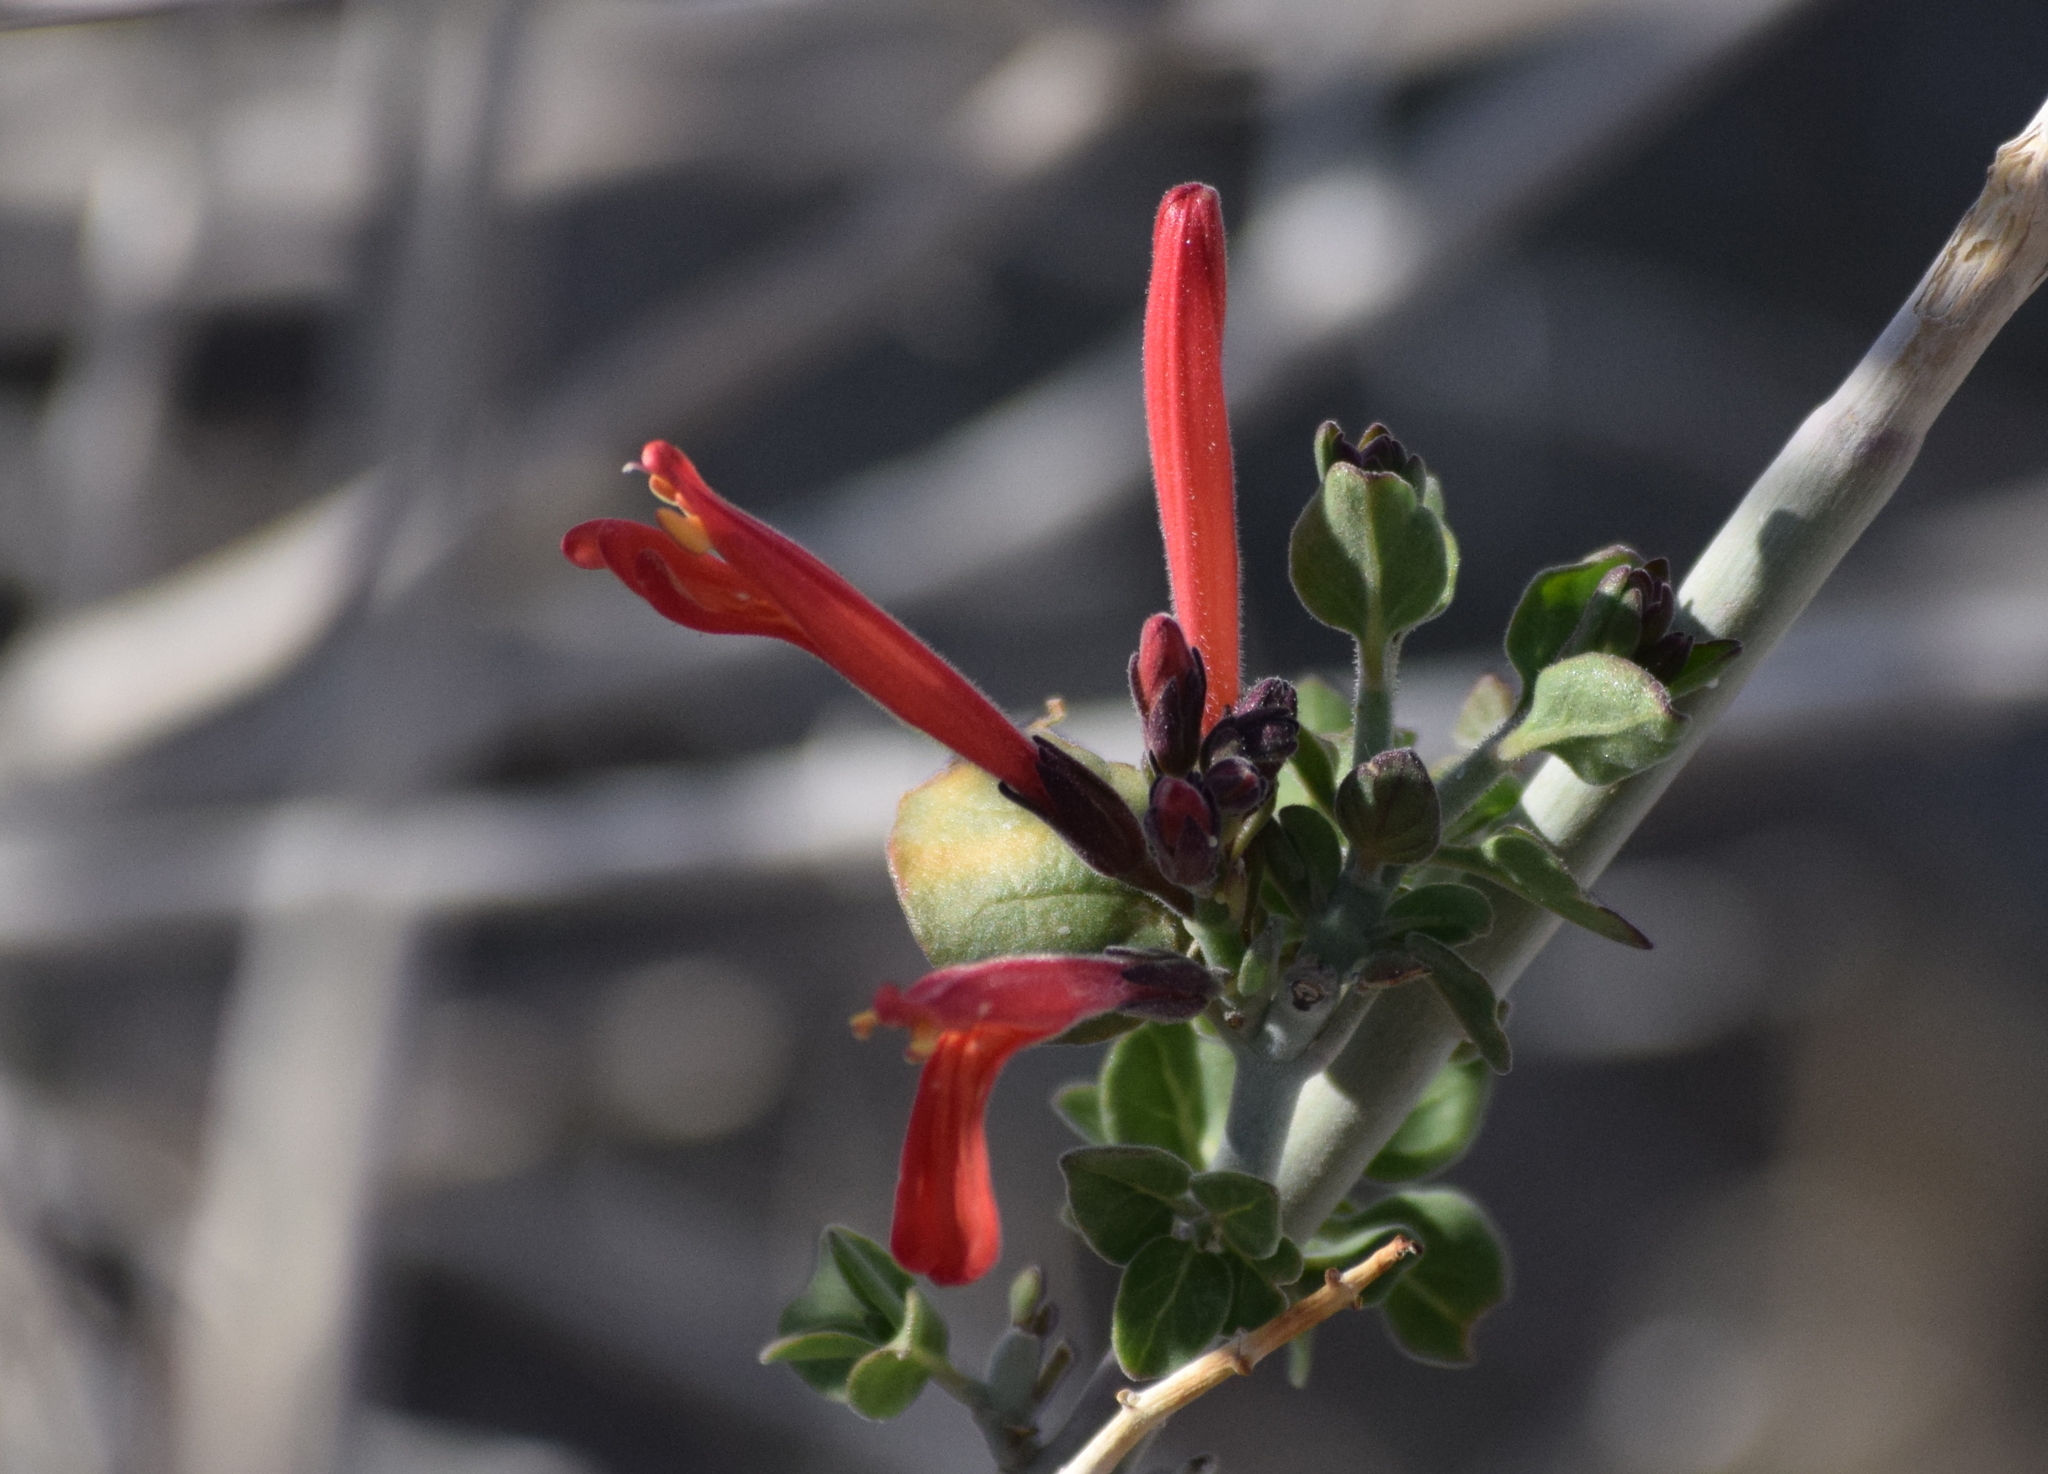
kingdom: Plantae
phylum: Tracheophyta
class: Magnoliopsida
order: Lamiales
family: Acanthaceae
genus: Justicia
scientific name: Justicia californica
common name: Chuparosa-honeysuckle
